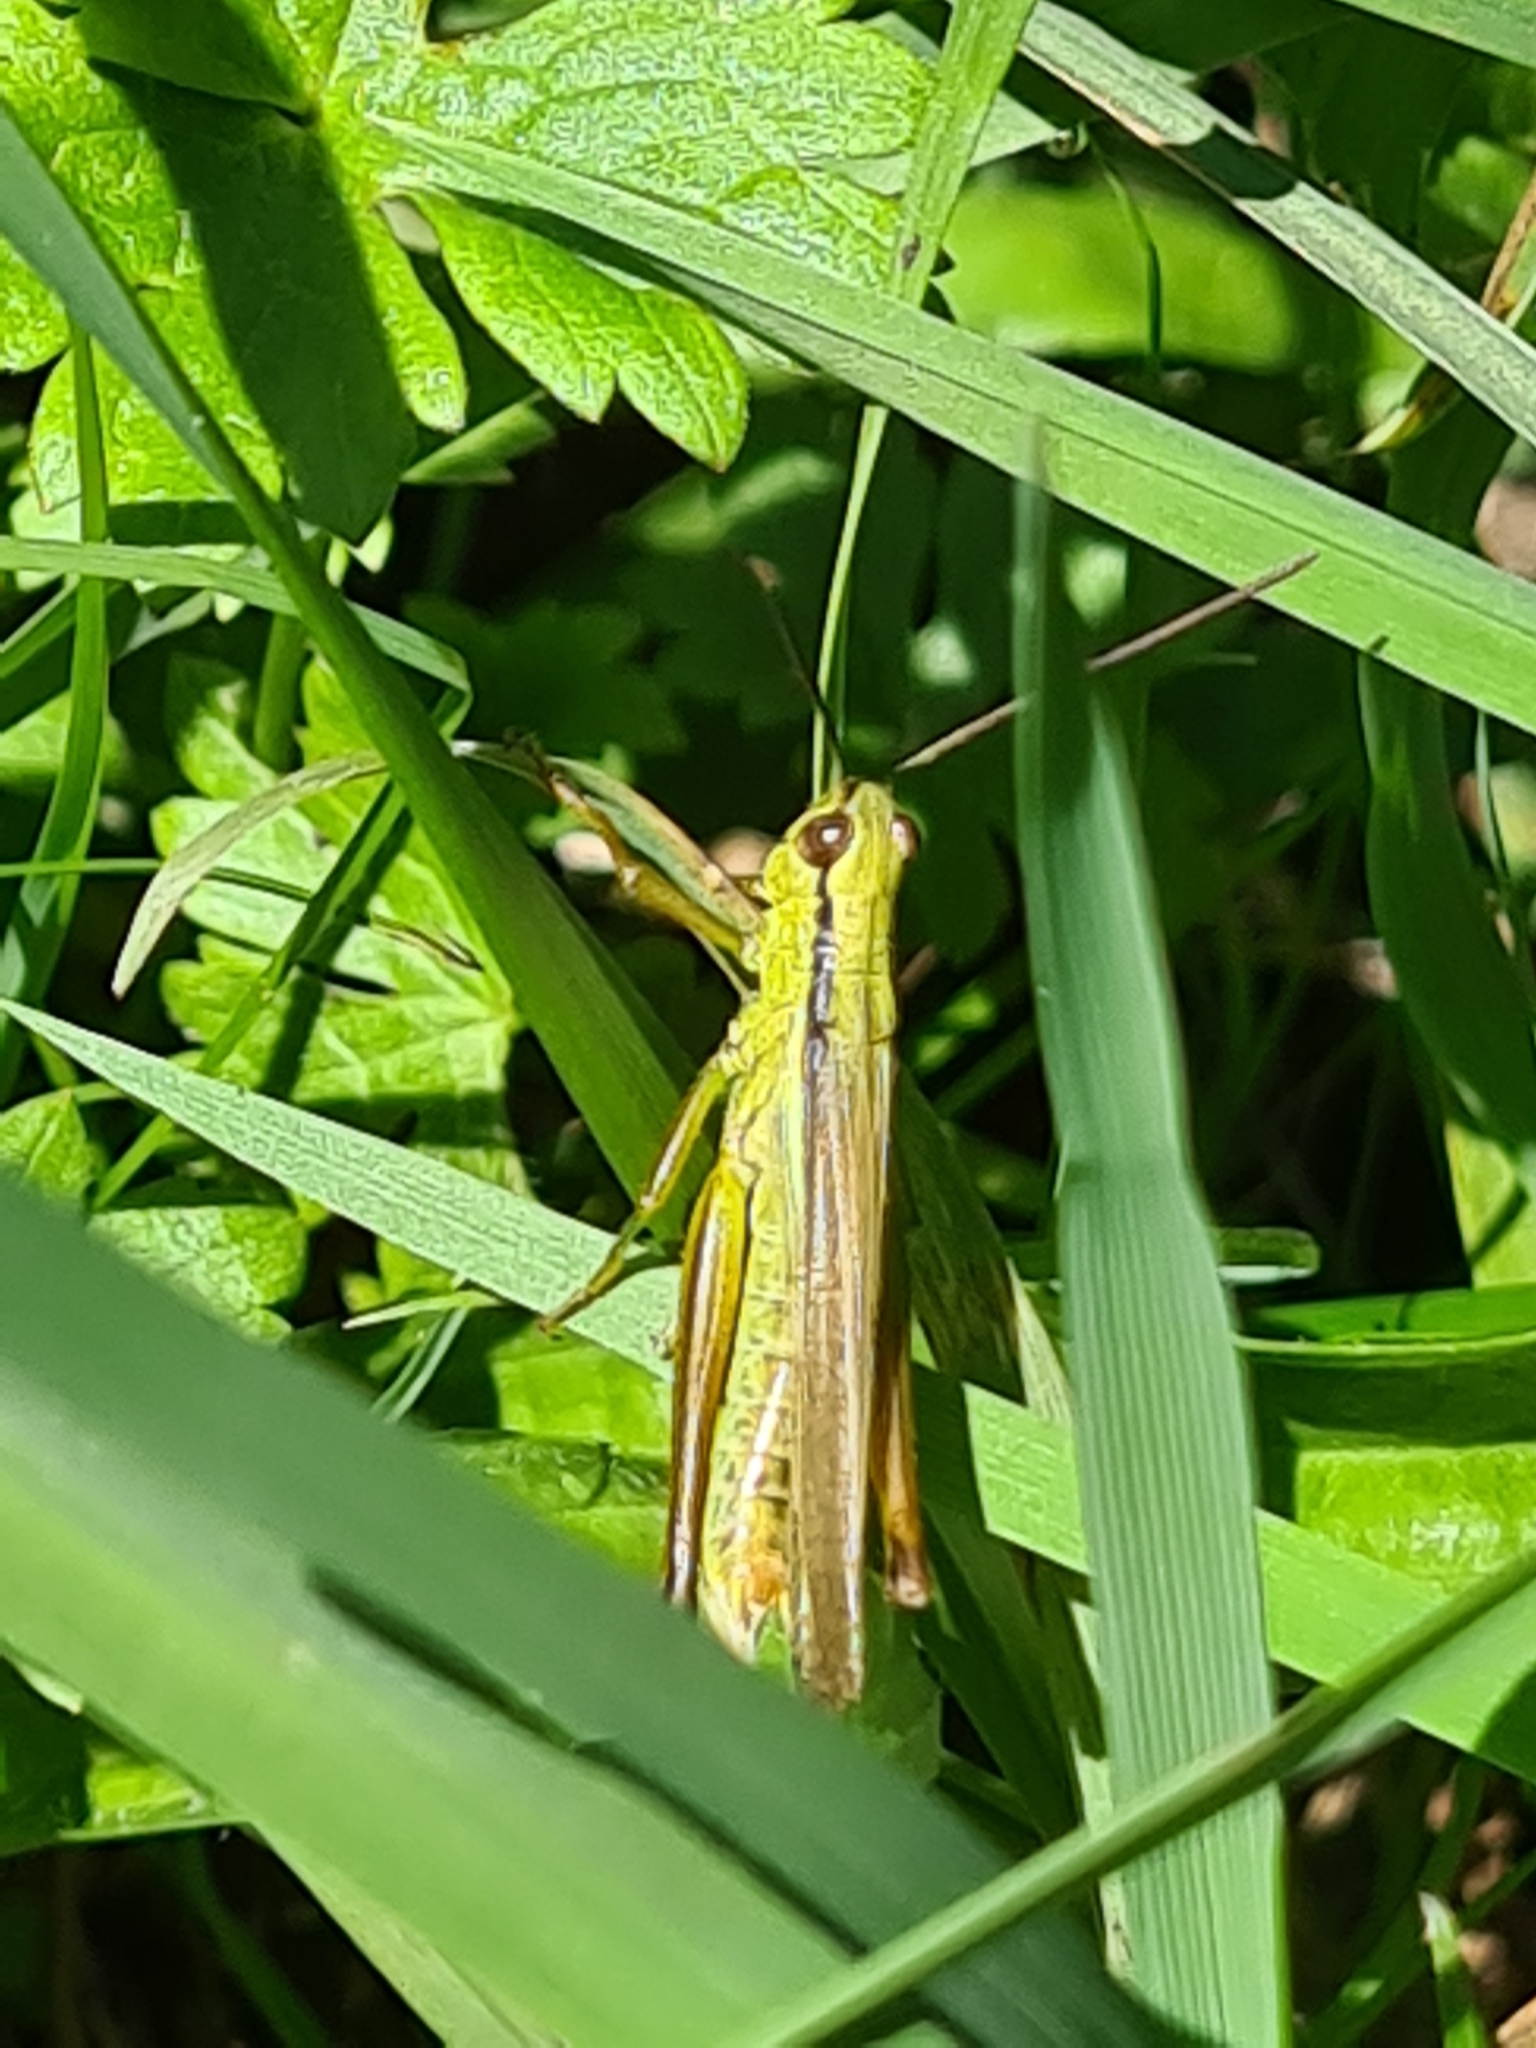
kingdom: Animalia
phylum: Arthropoda
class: Insecta
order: Orthoptera
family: Acrididae
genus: Mecostethus
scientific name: Mecostethus parapleurus
